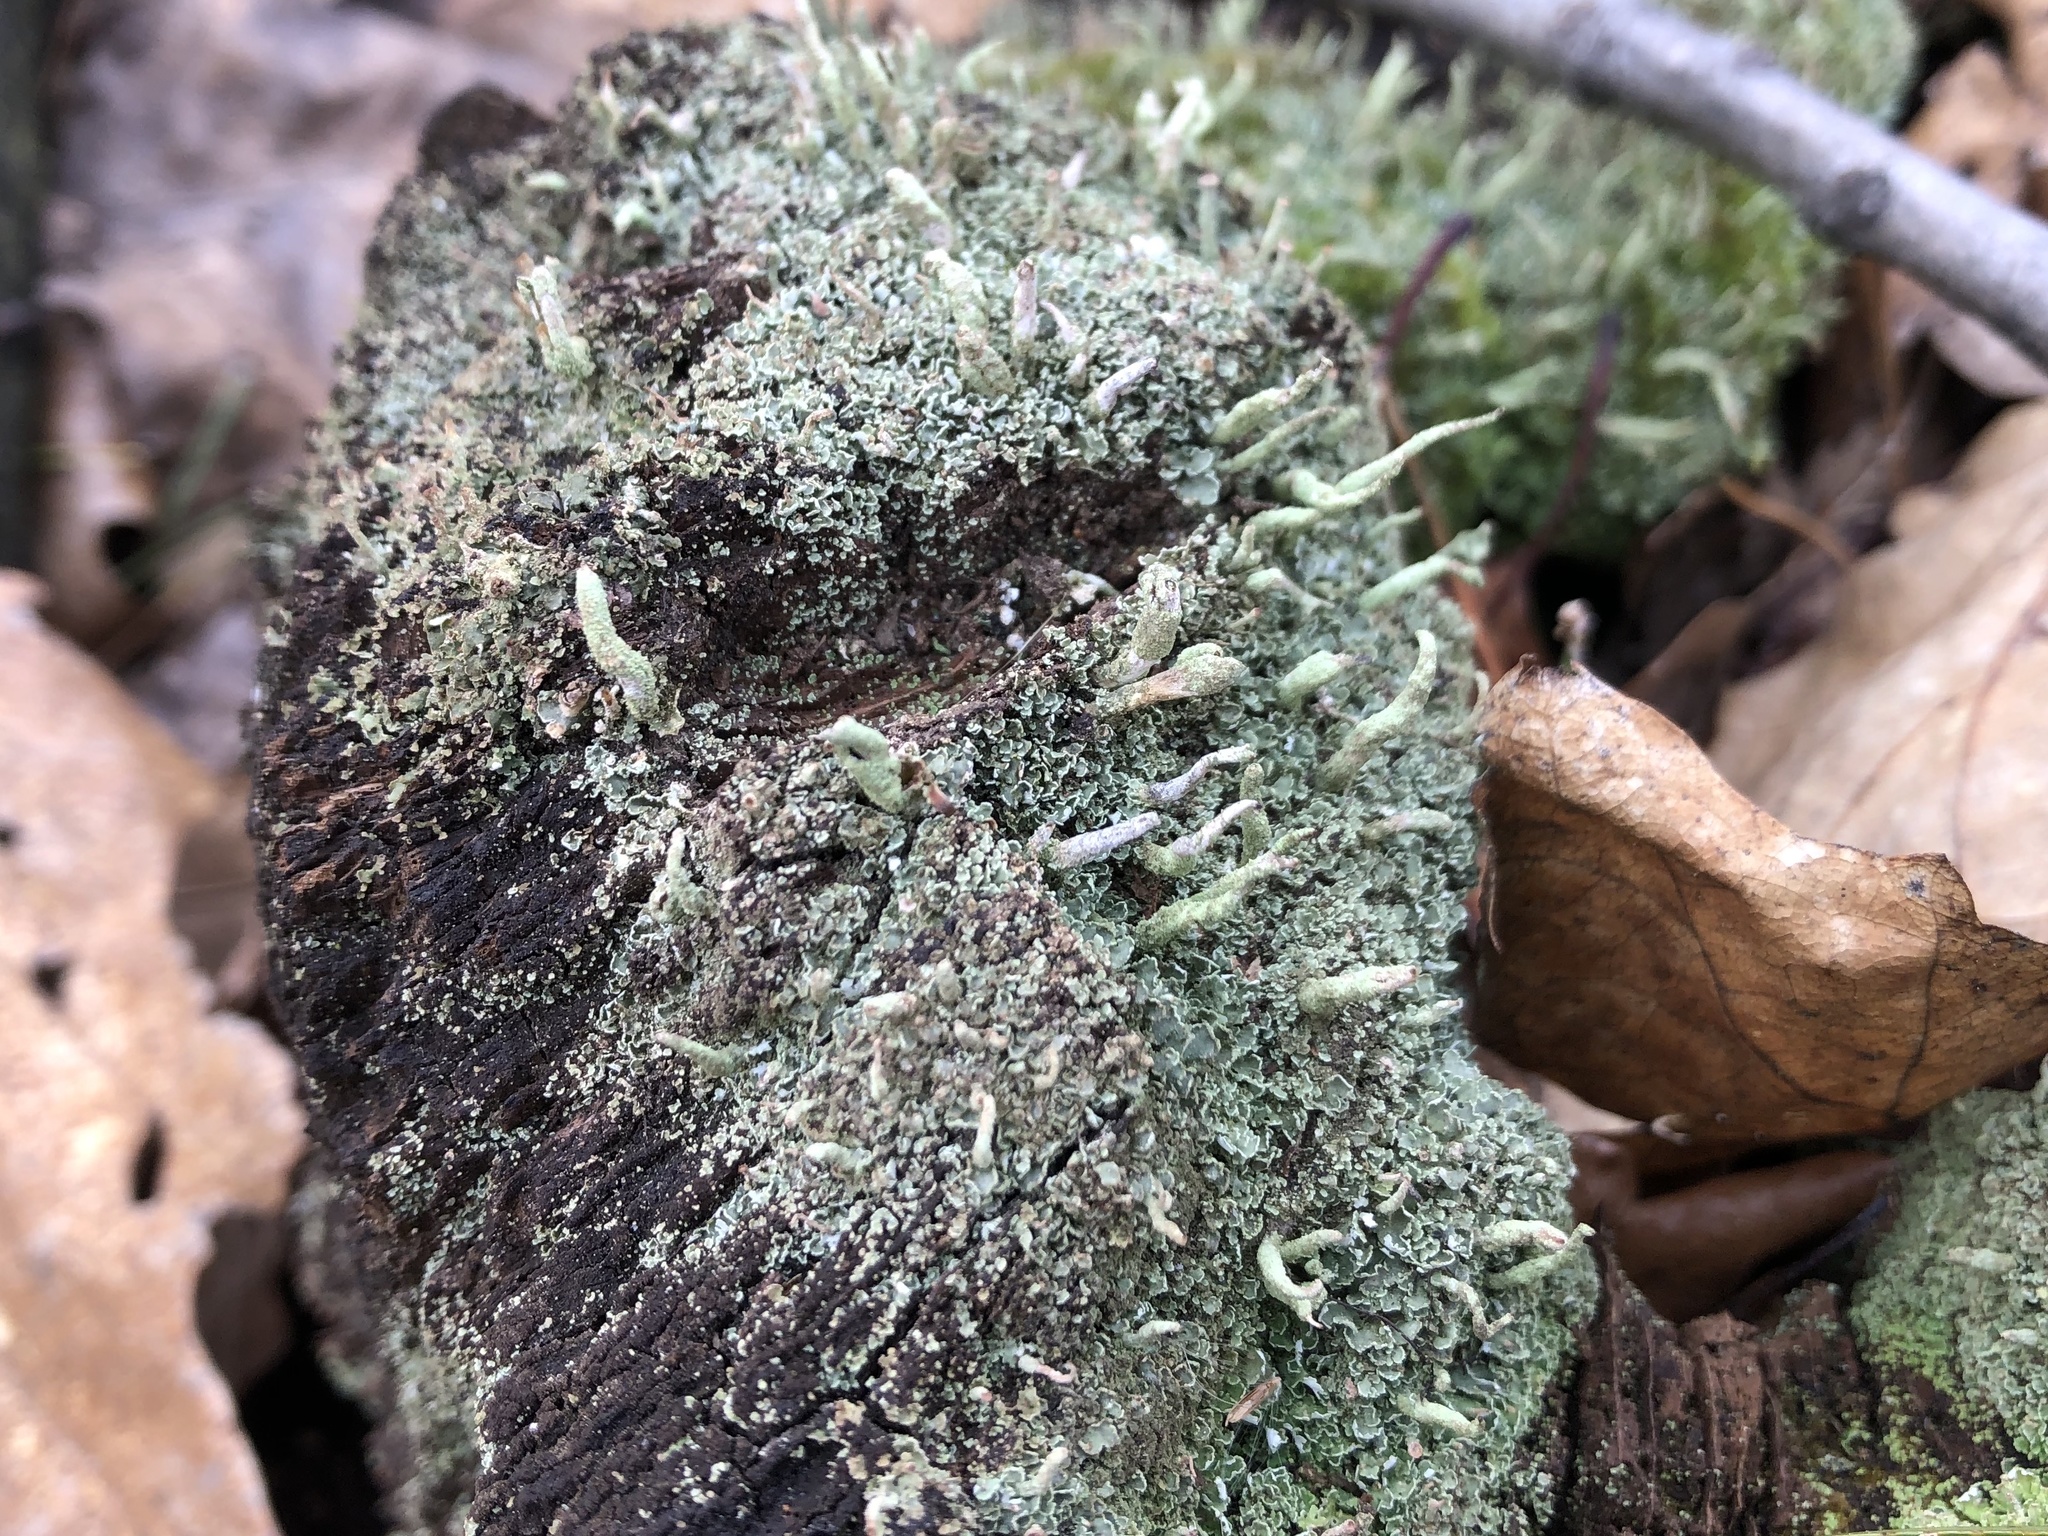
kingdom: Fungi
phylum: Ascomycota
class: Lecanoromycetes
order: Lecanorales
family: Cladoniaceae
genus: Cladonia
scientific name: Cladonia
